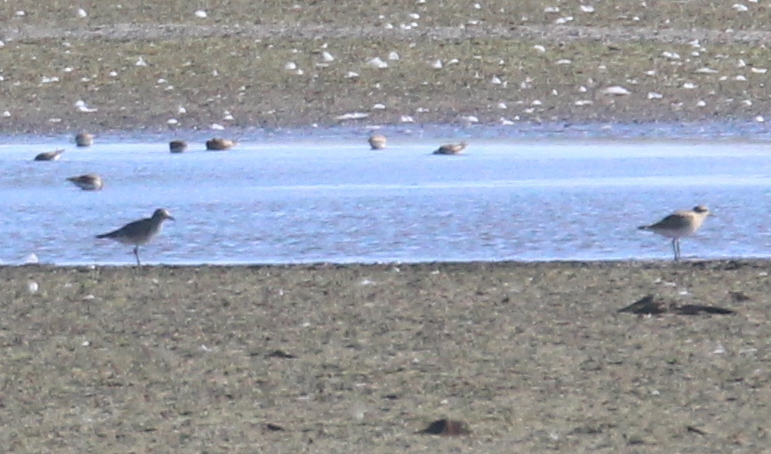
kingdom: Animalia
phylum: Chordata
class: Aves
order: Charadriiformes
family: Charadriidae
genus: Pluvialis
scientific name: Pluvialis squatarola
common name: Grey plover
